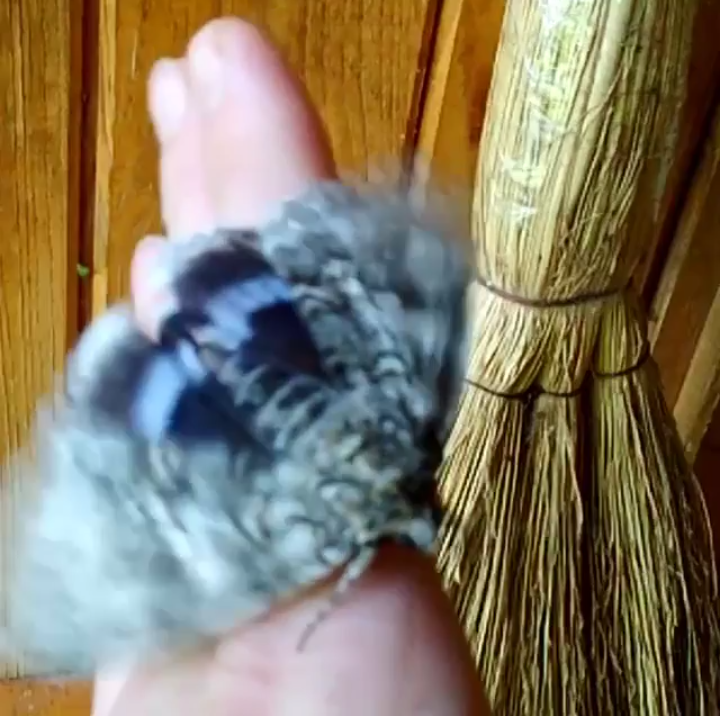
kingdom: Animalia
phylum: Arthropoda
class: Insecta
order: Lepidoptera
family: Erebidae
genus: Catocala
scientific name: Catocala fraxini
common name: Clifden nonpareil
